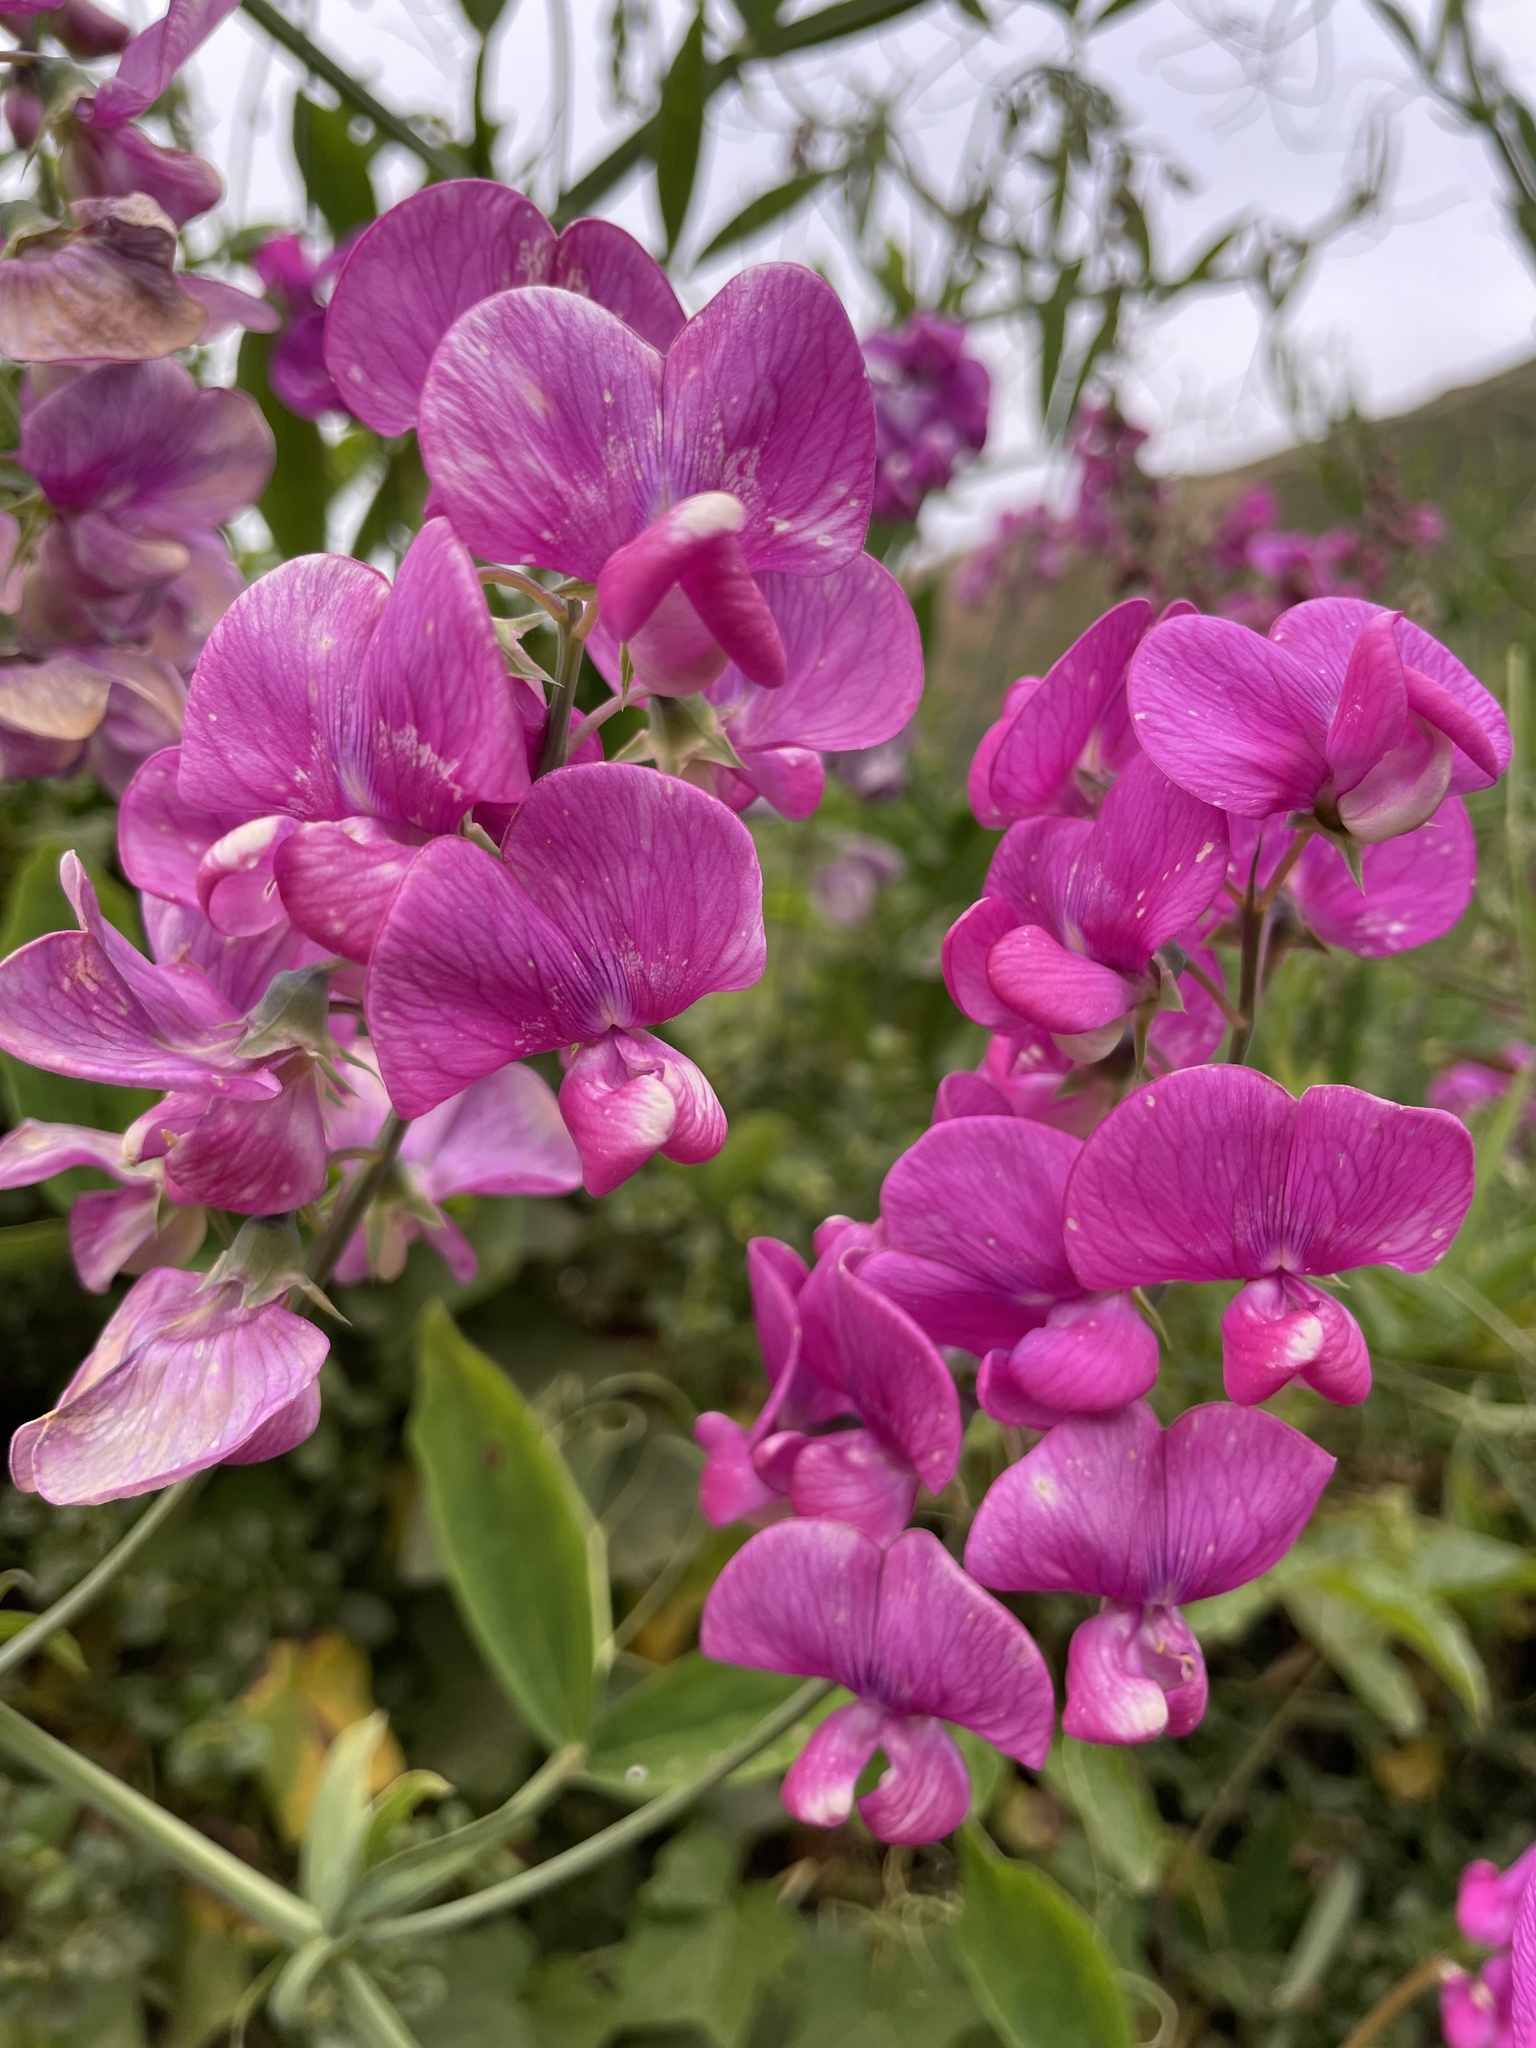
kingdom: Plantae
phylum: Tracheophyta
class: Magnoliopsida
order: Fabales
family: Fabaceae
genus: Lathyrus
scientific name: Lathyrus latifolius
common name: Perennial pea
